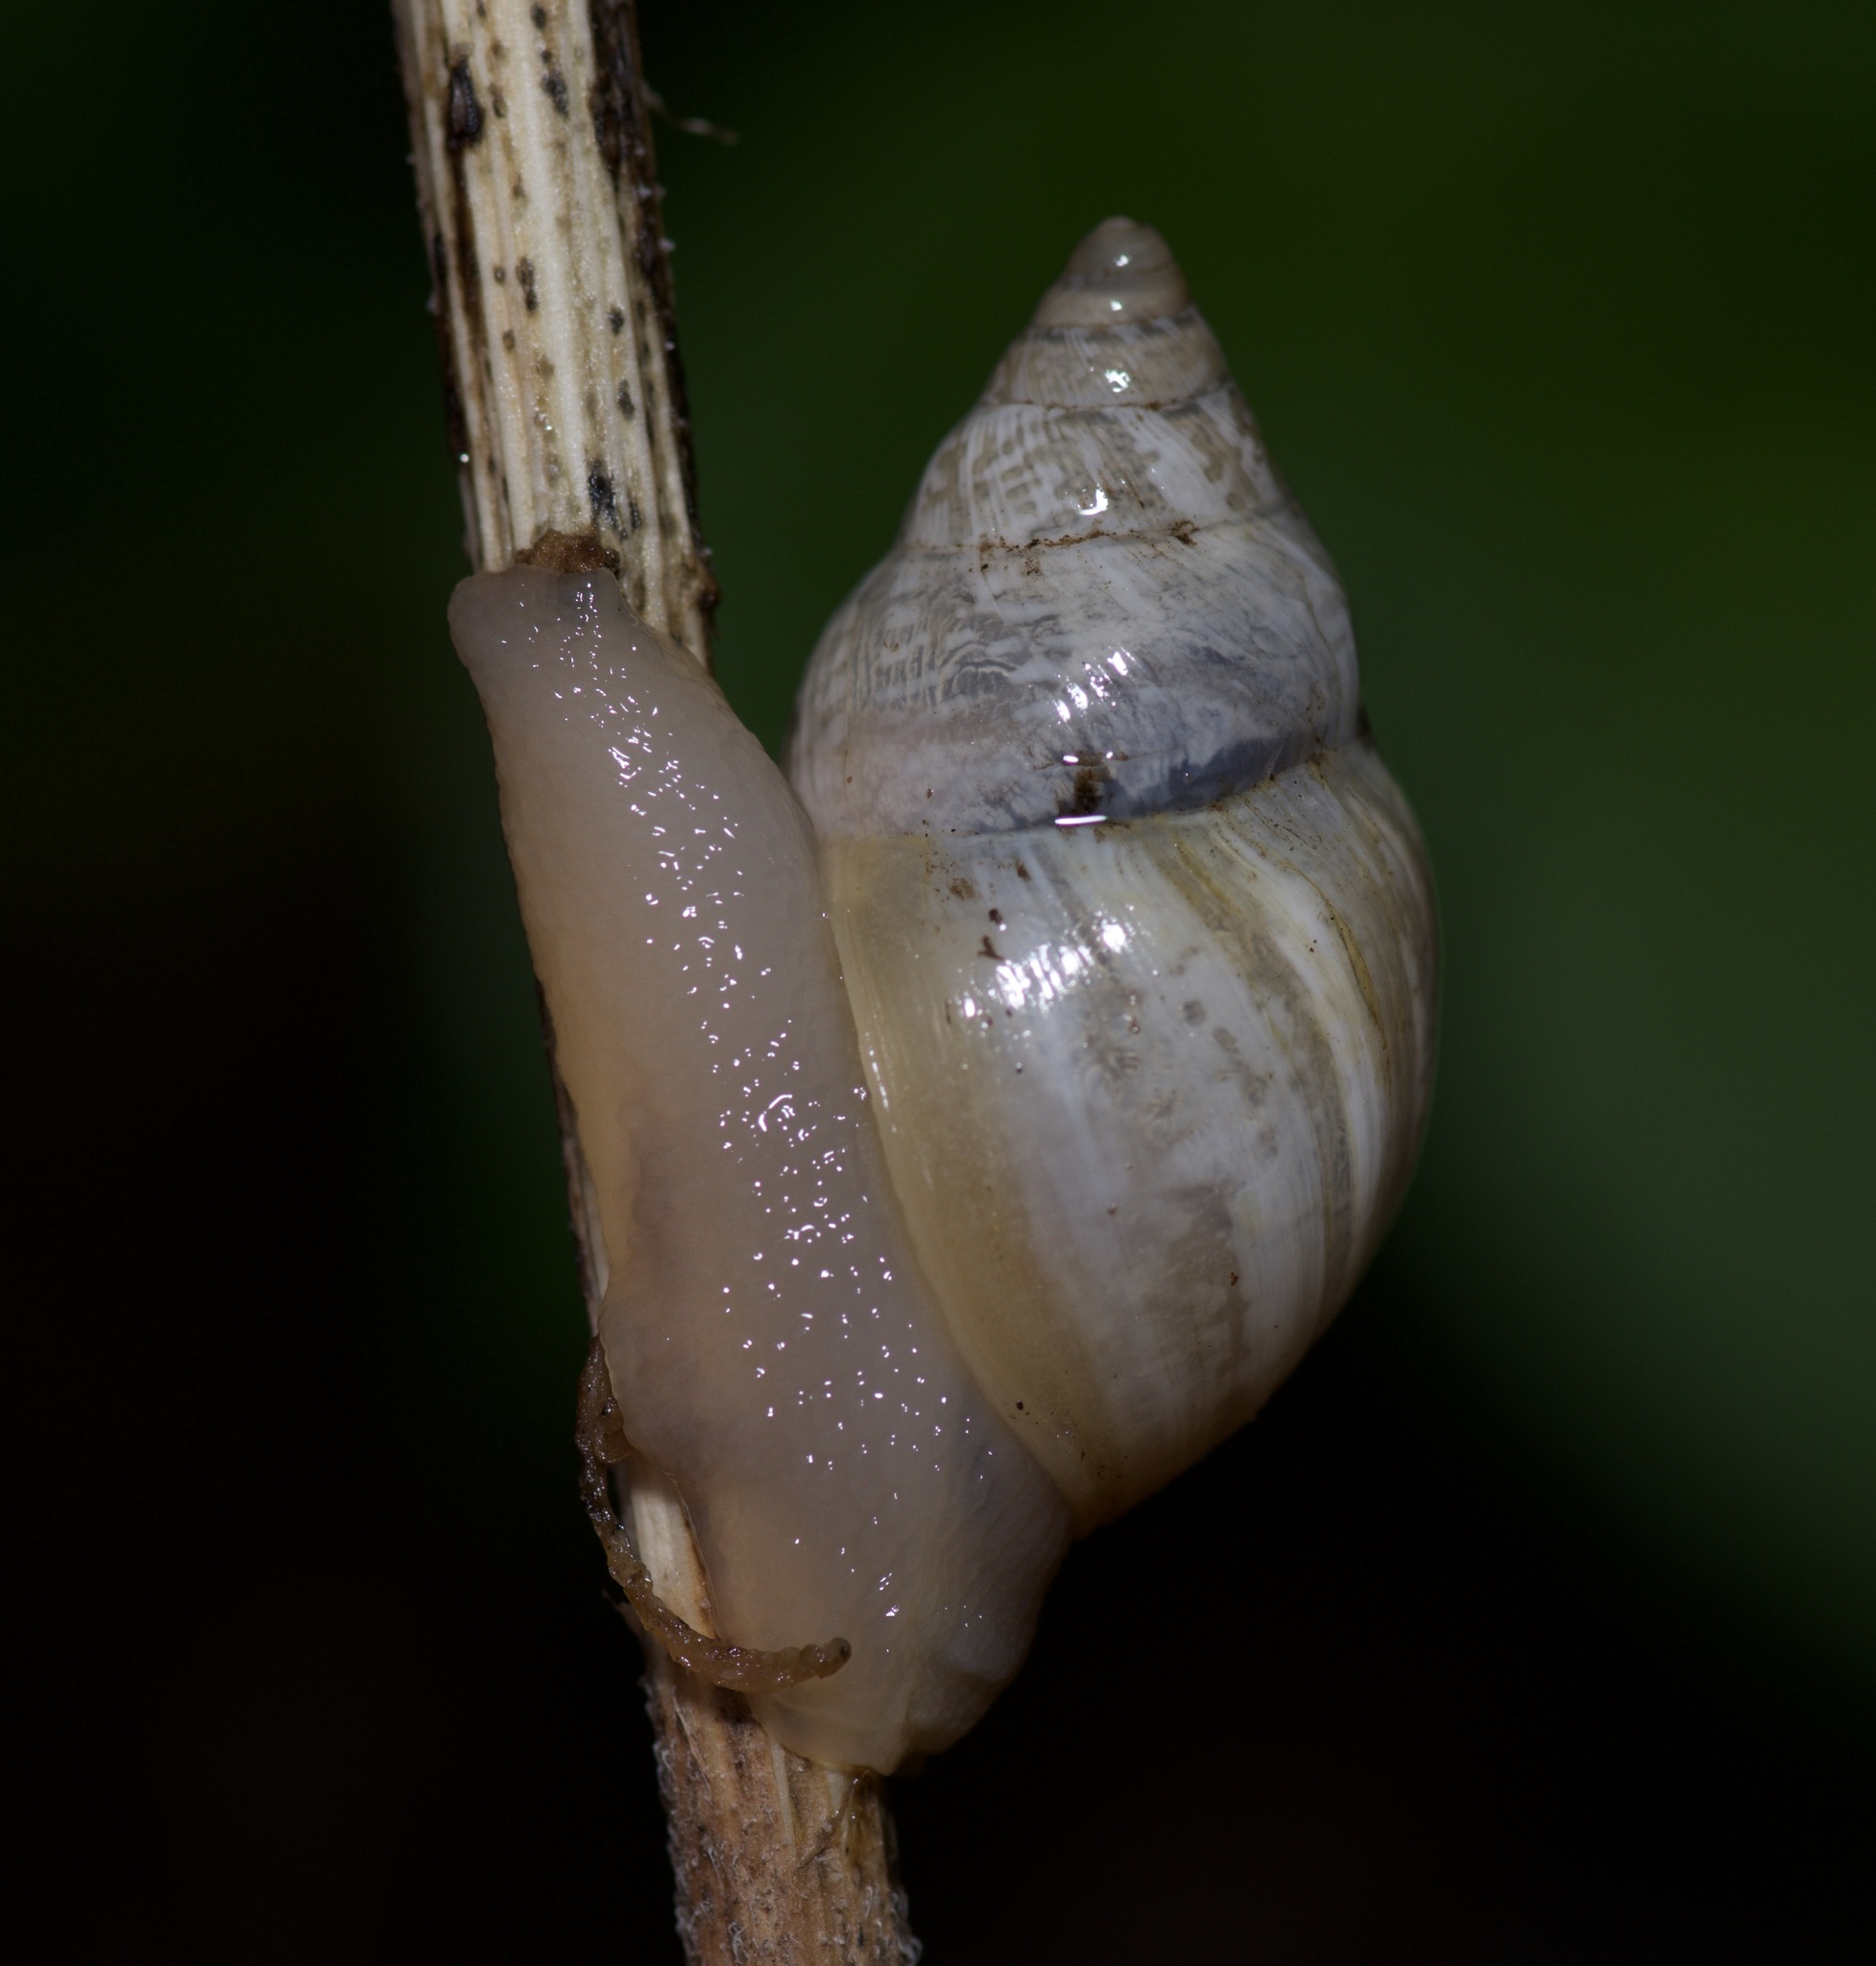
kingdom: Animalia
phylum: Mollusca
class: Gastropoda
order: Stylommatophora
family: Bulimulidae
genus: Rabdotus
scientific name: Rabdotus dealbatus
